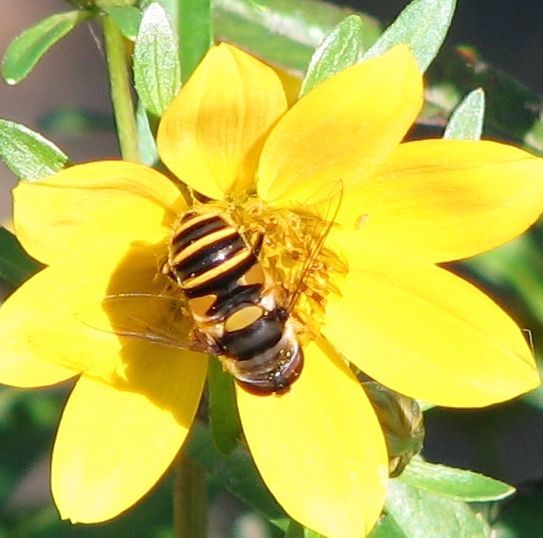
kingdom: Animalia
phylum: Arthropoda
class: Insecta
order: Diptera
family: Syrphidae
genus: Eristalis
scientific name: Eristalis transversa
